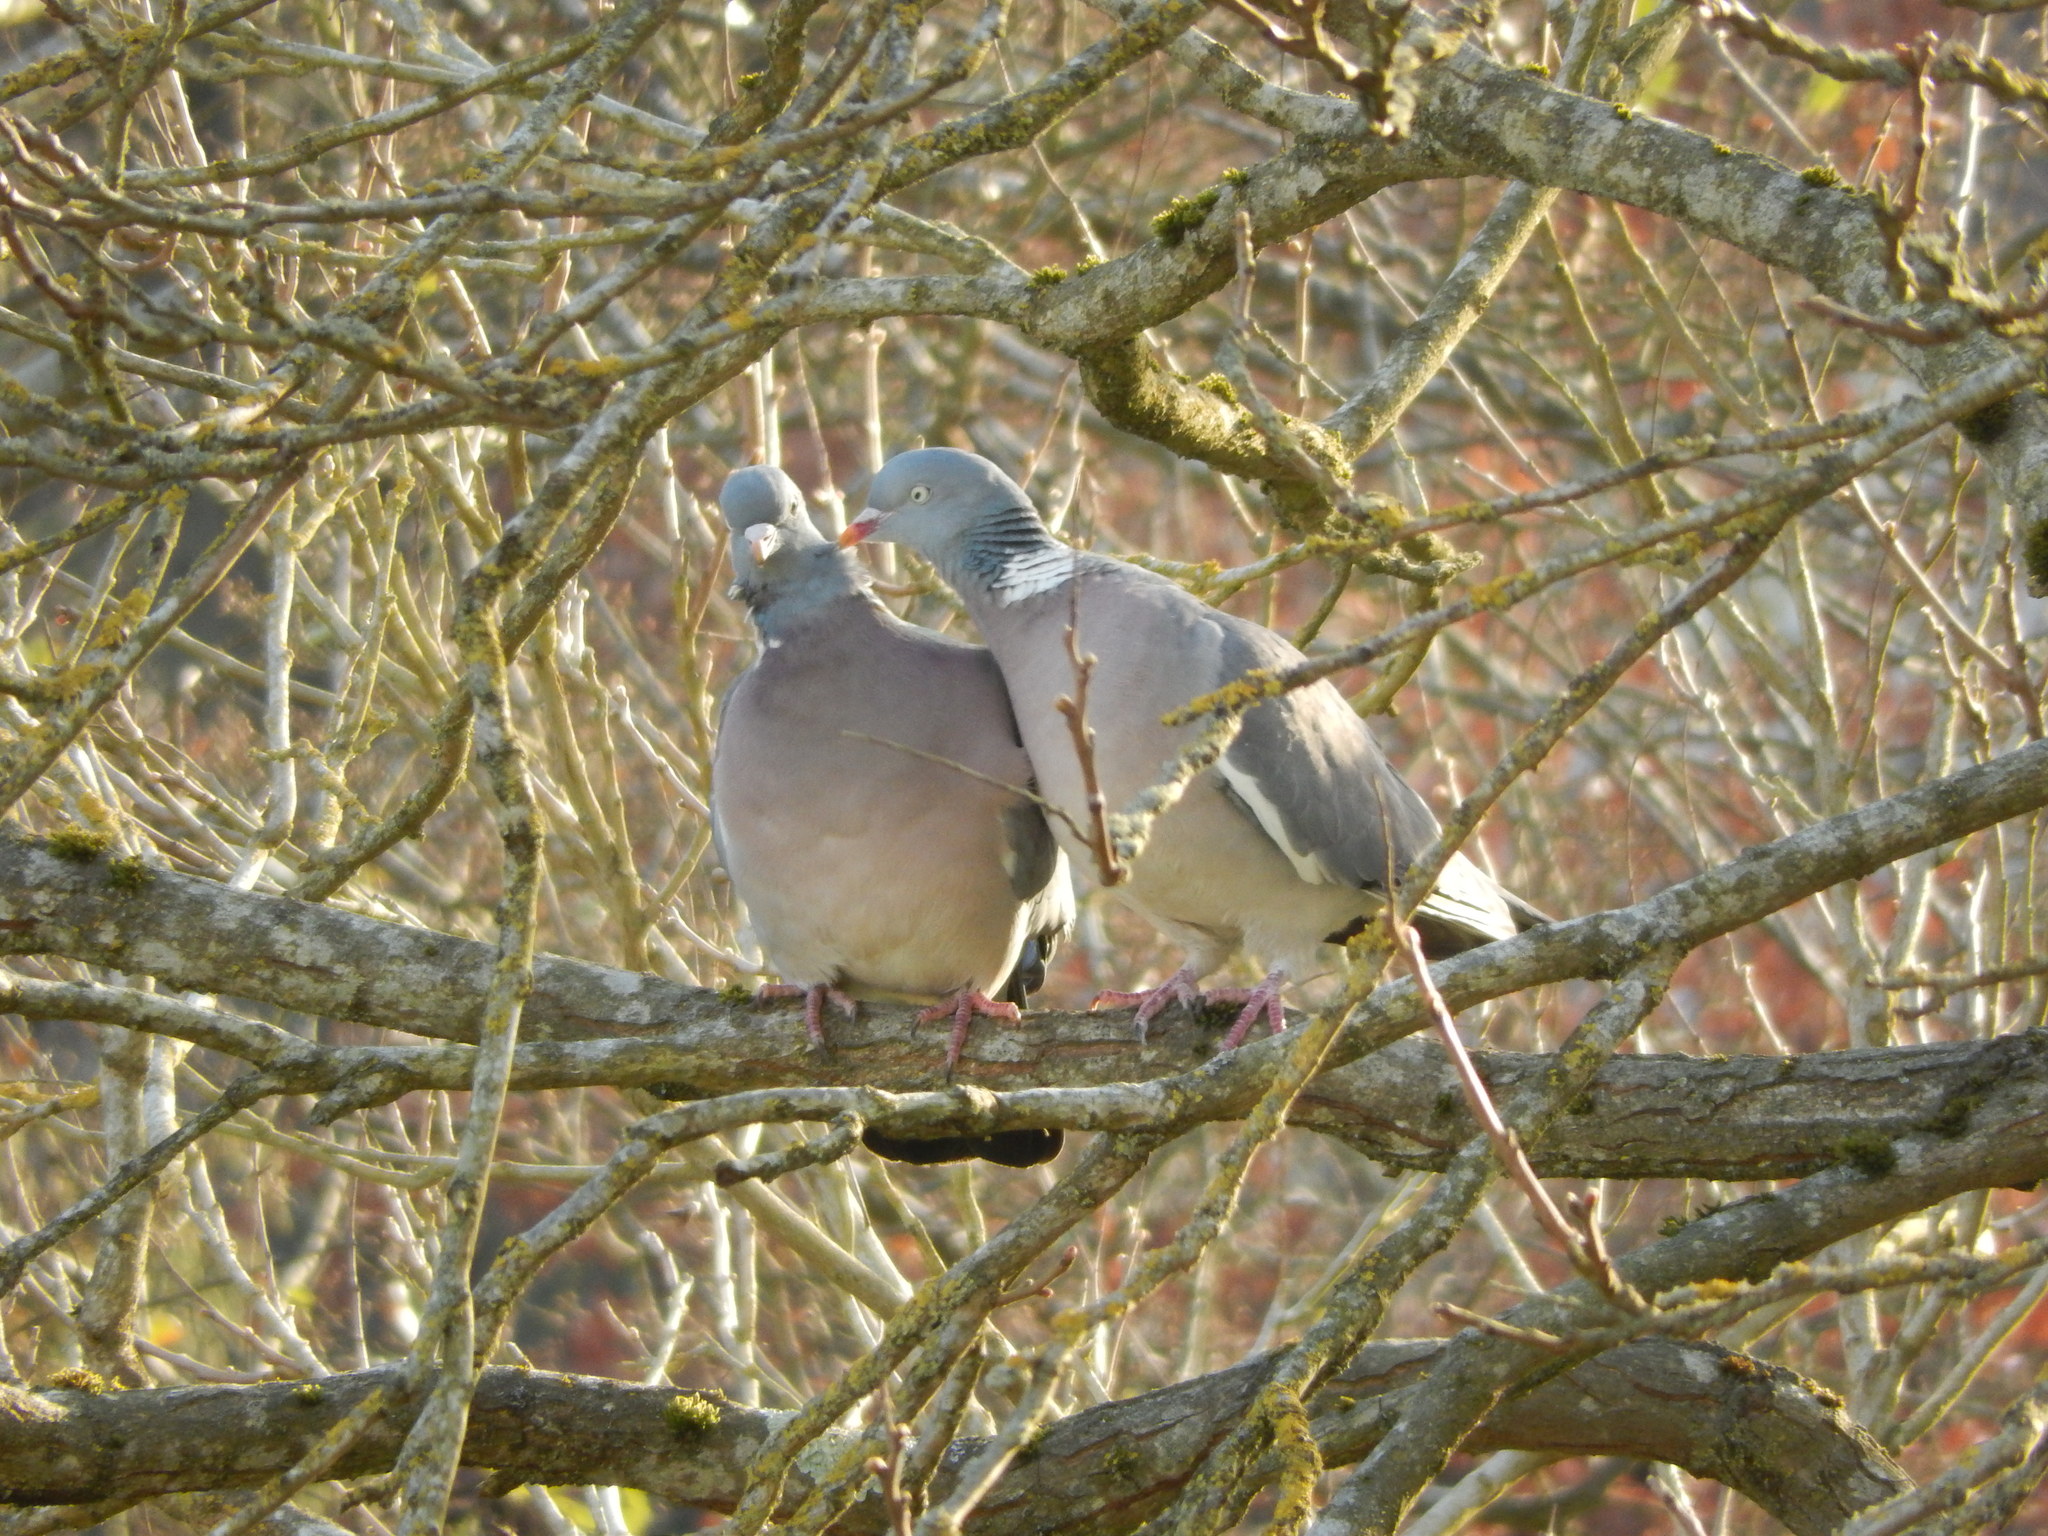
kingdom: Animalia
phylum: Chordata
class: Aves
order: Columbiformes
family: Columbidae
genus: Columba
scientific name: Columba palumbus
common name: Common wood pigeon
